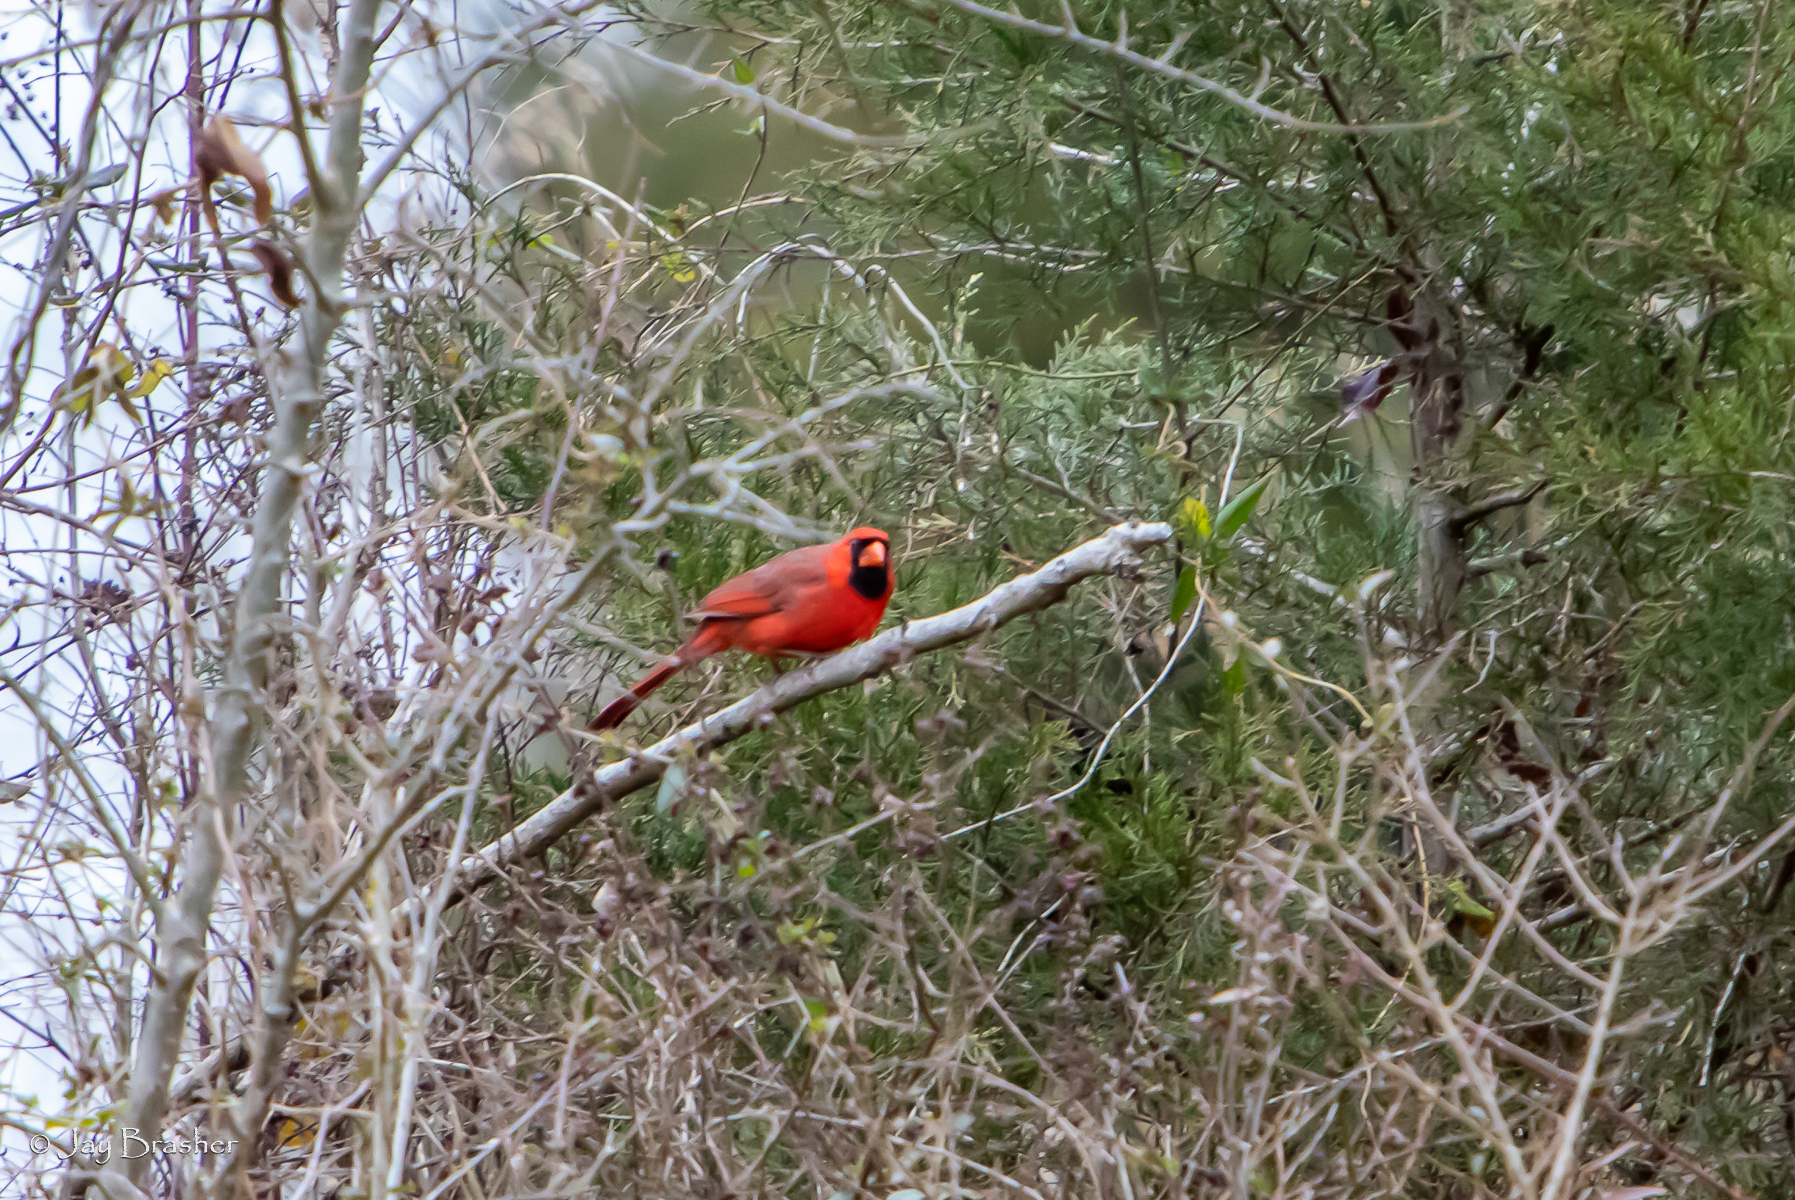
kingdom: Animalia
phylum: Chordata
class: Aves
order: Passeriformes
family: Cardinalidae
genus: Cardinalis
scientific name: Cardinalis cardinalis
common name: Northern cardinal
